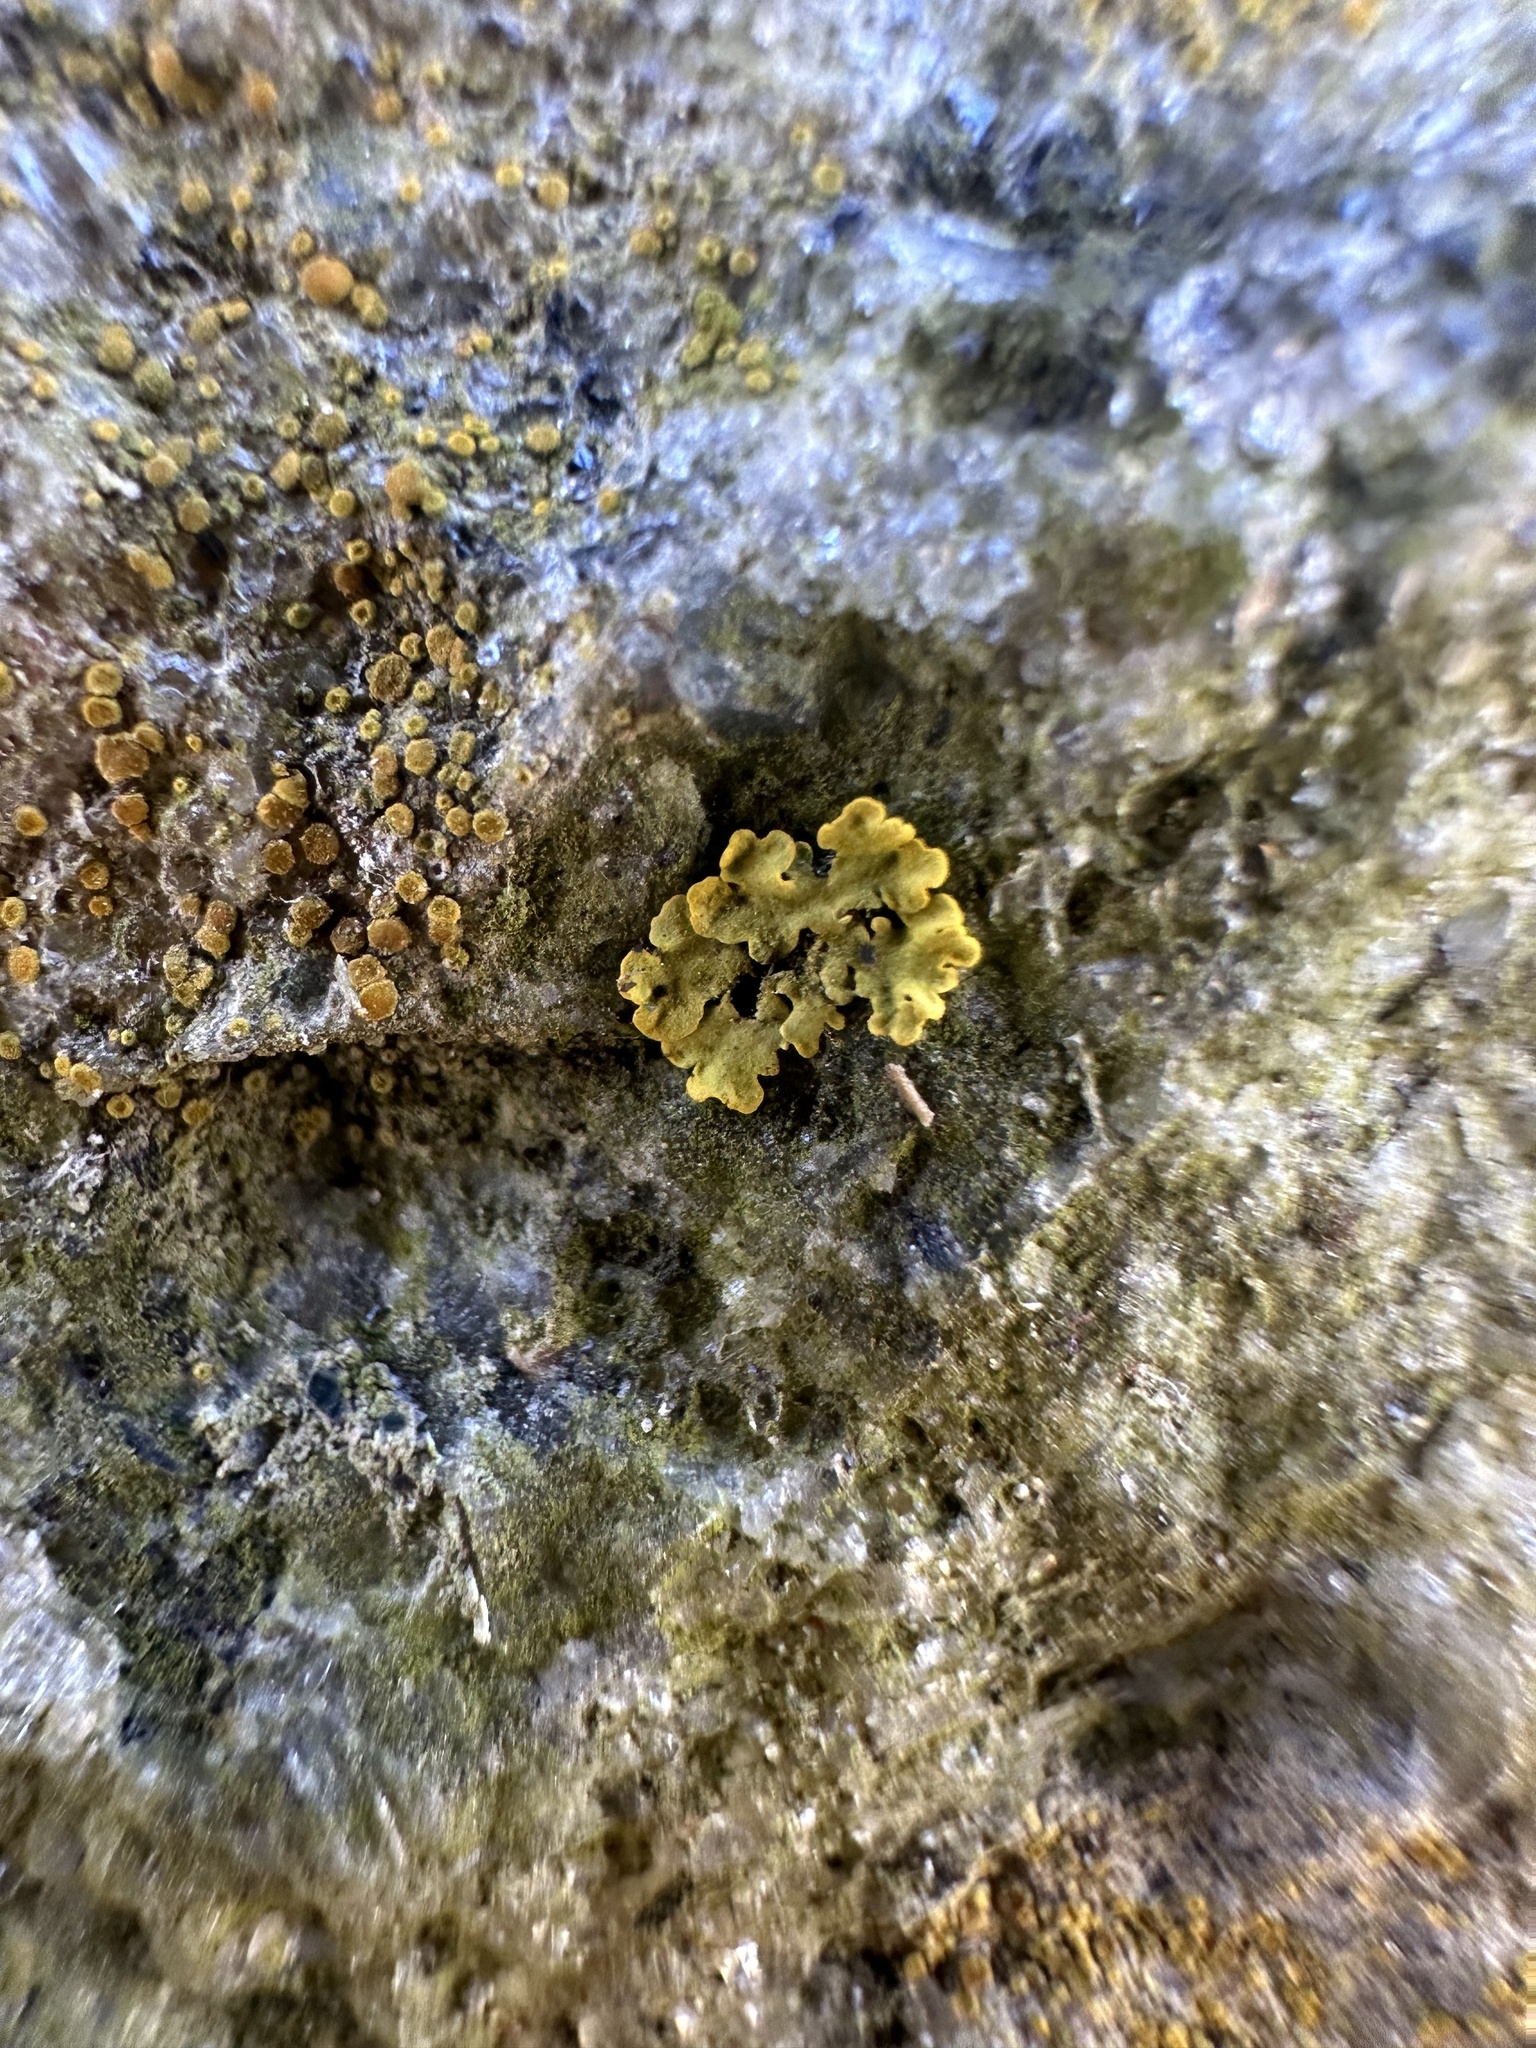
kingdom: Fungi
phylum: Ascomycota
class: Lecanoromycetes
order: Teloschistales
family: Teloschistaceae
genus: Xanthoria
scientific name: Xanthoria parietina
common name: Common orange lichen
